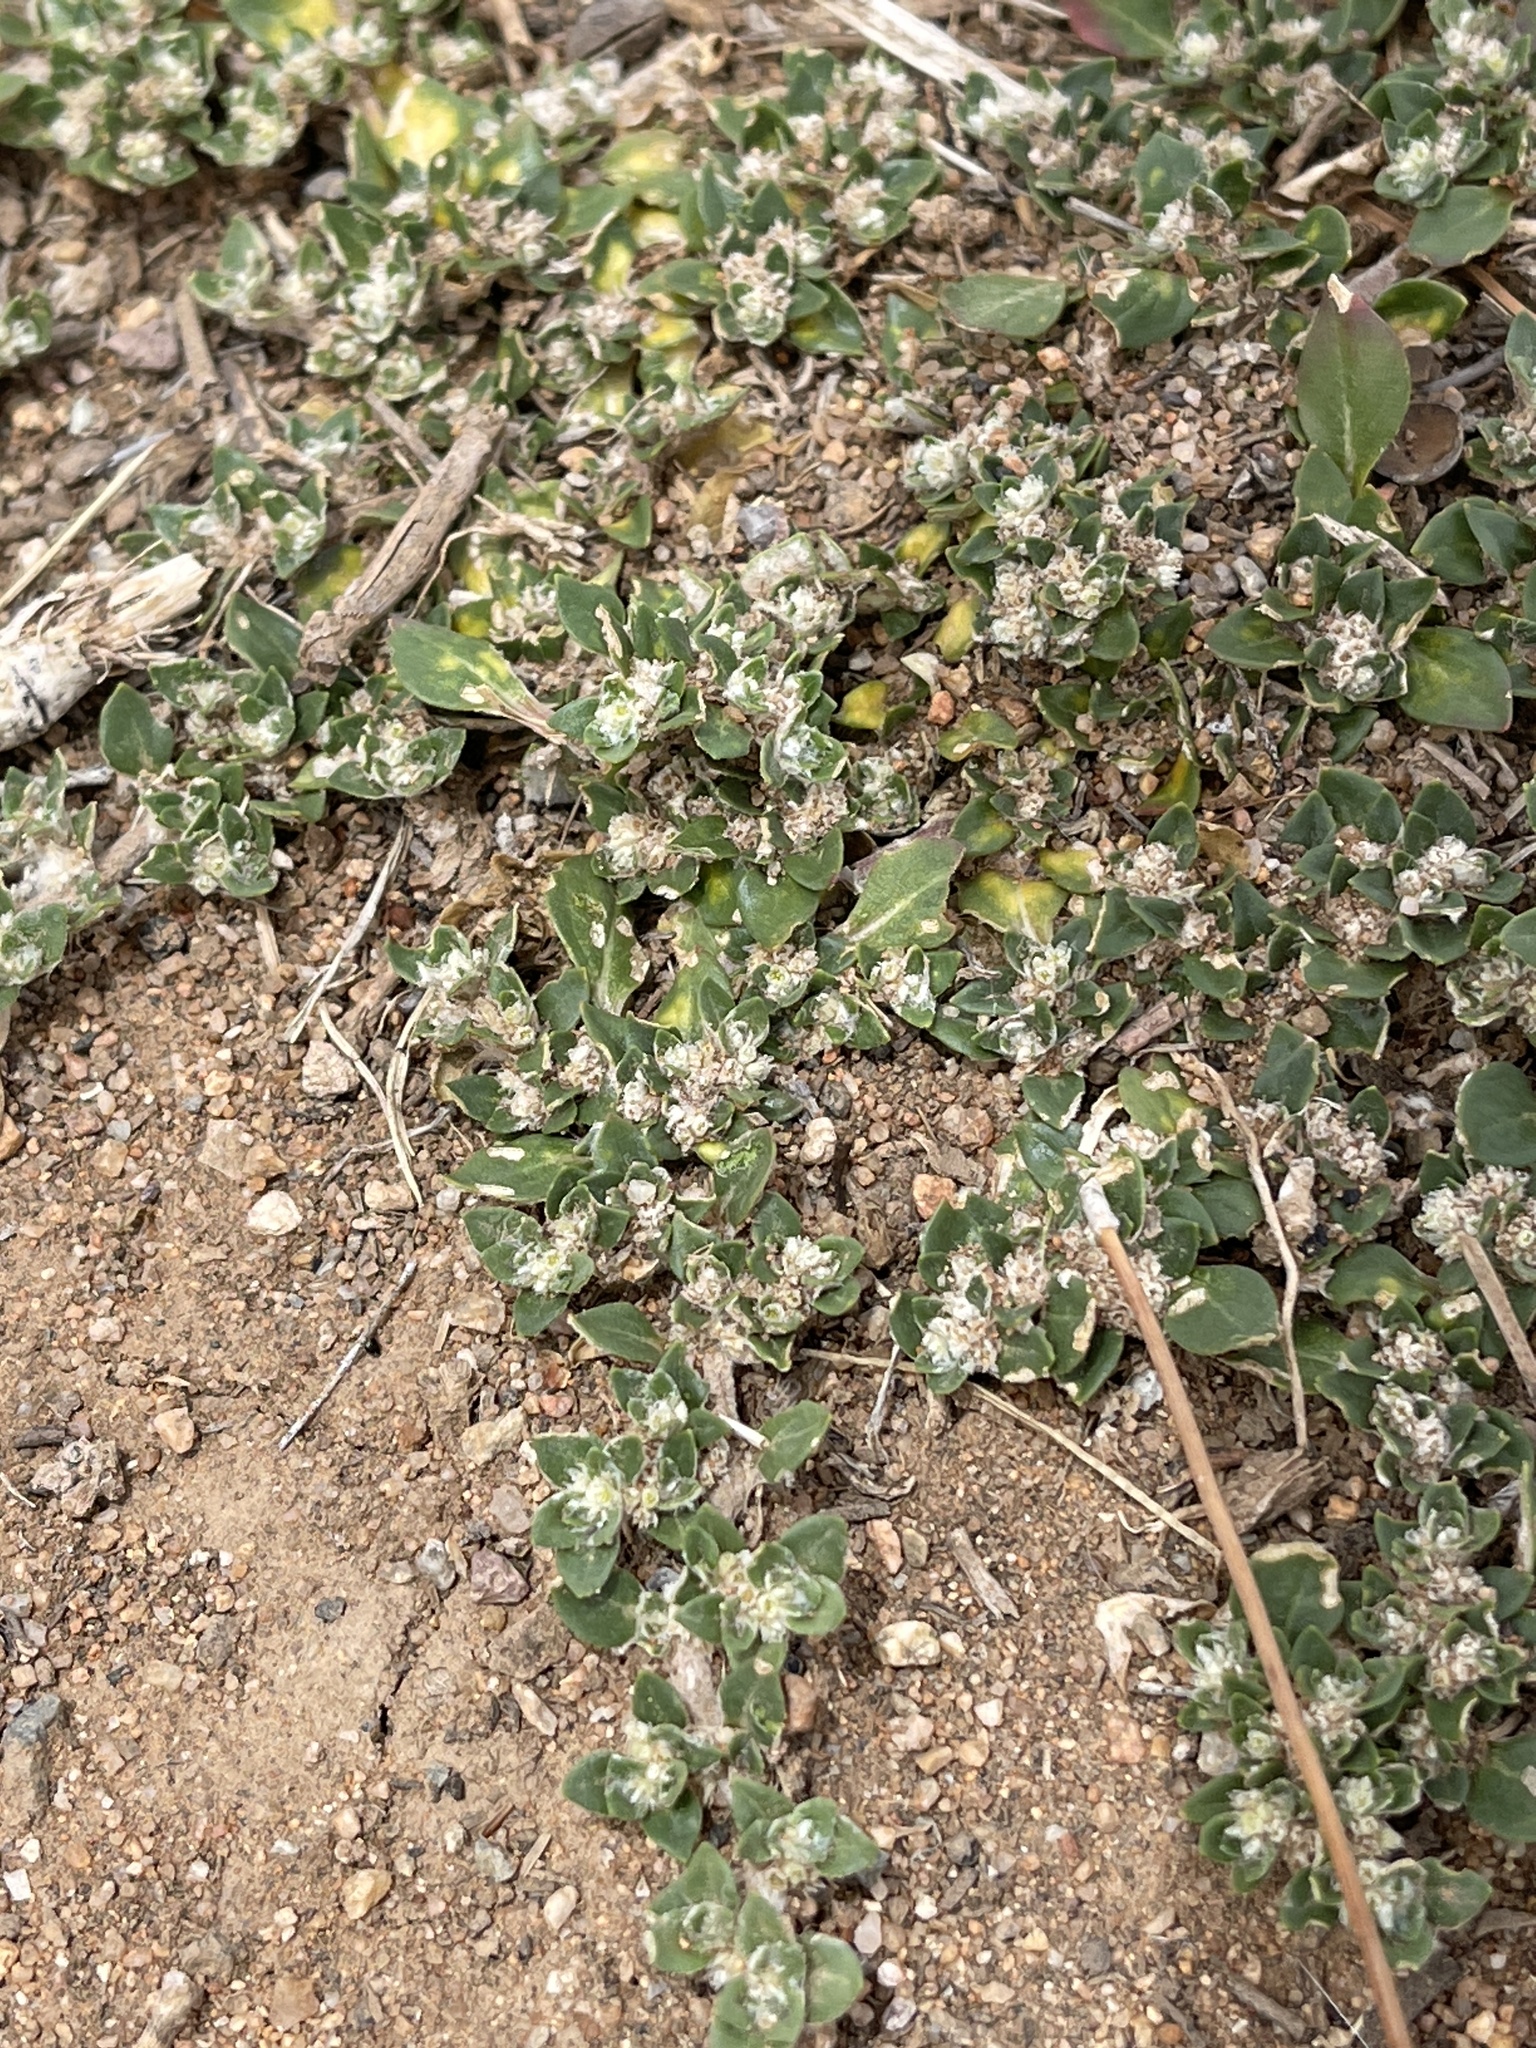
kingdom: Plantae
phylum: Tracheophyta
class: Magnoliopsida
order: Caryophyllales
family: Amaranthaceae
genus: Guilleminea
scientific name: Guilleminea densa
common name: Small matweed
